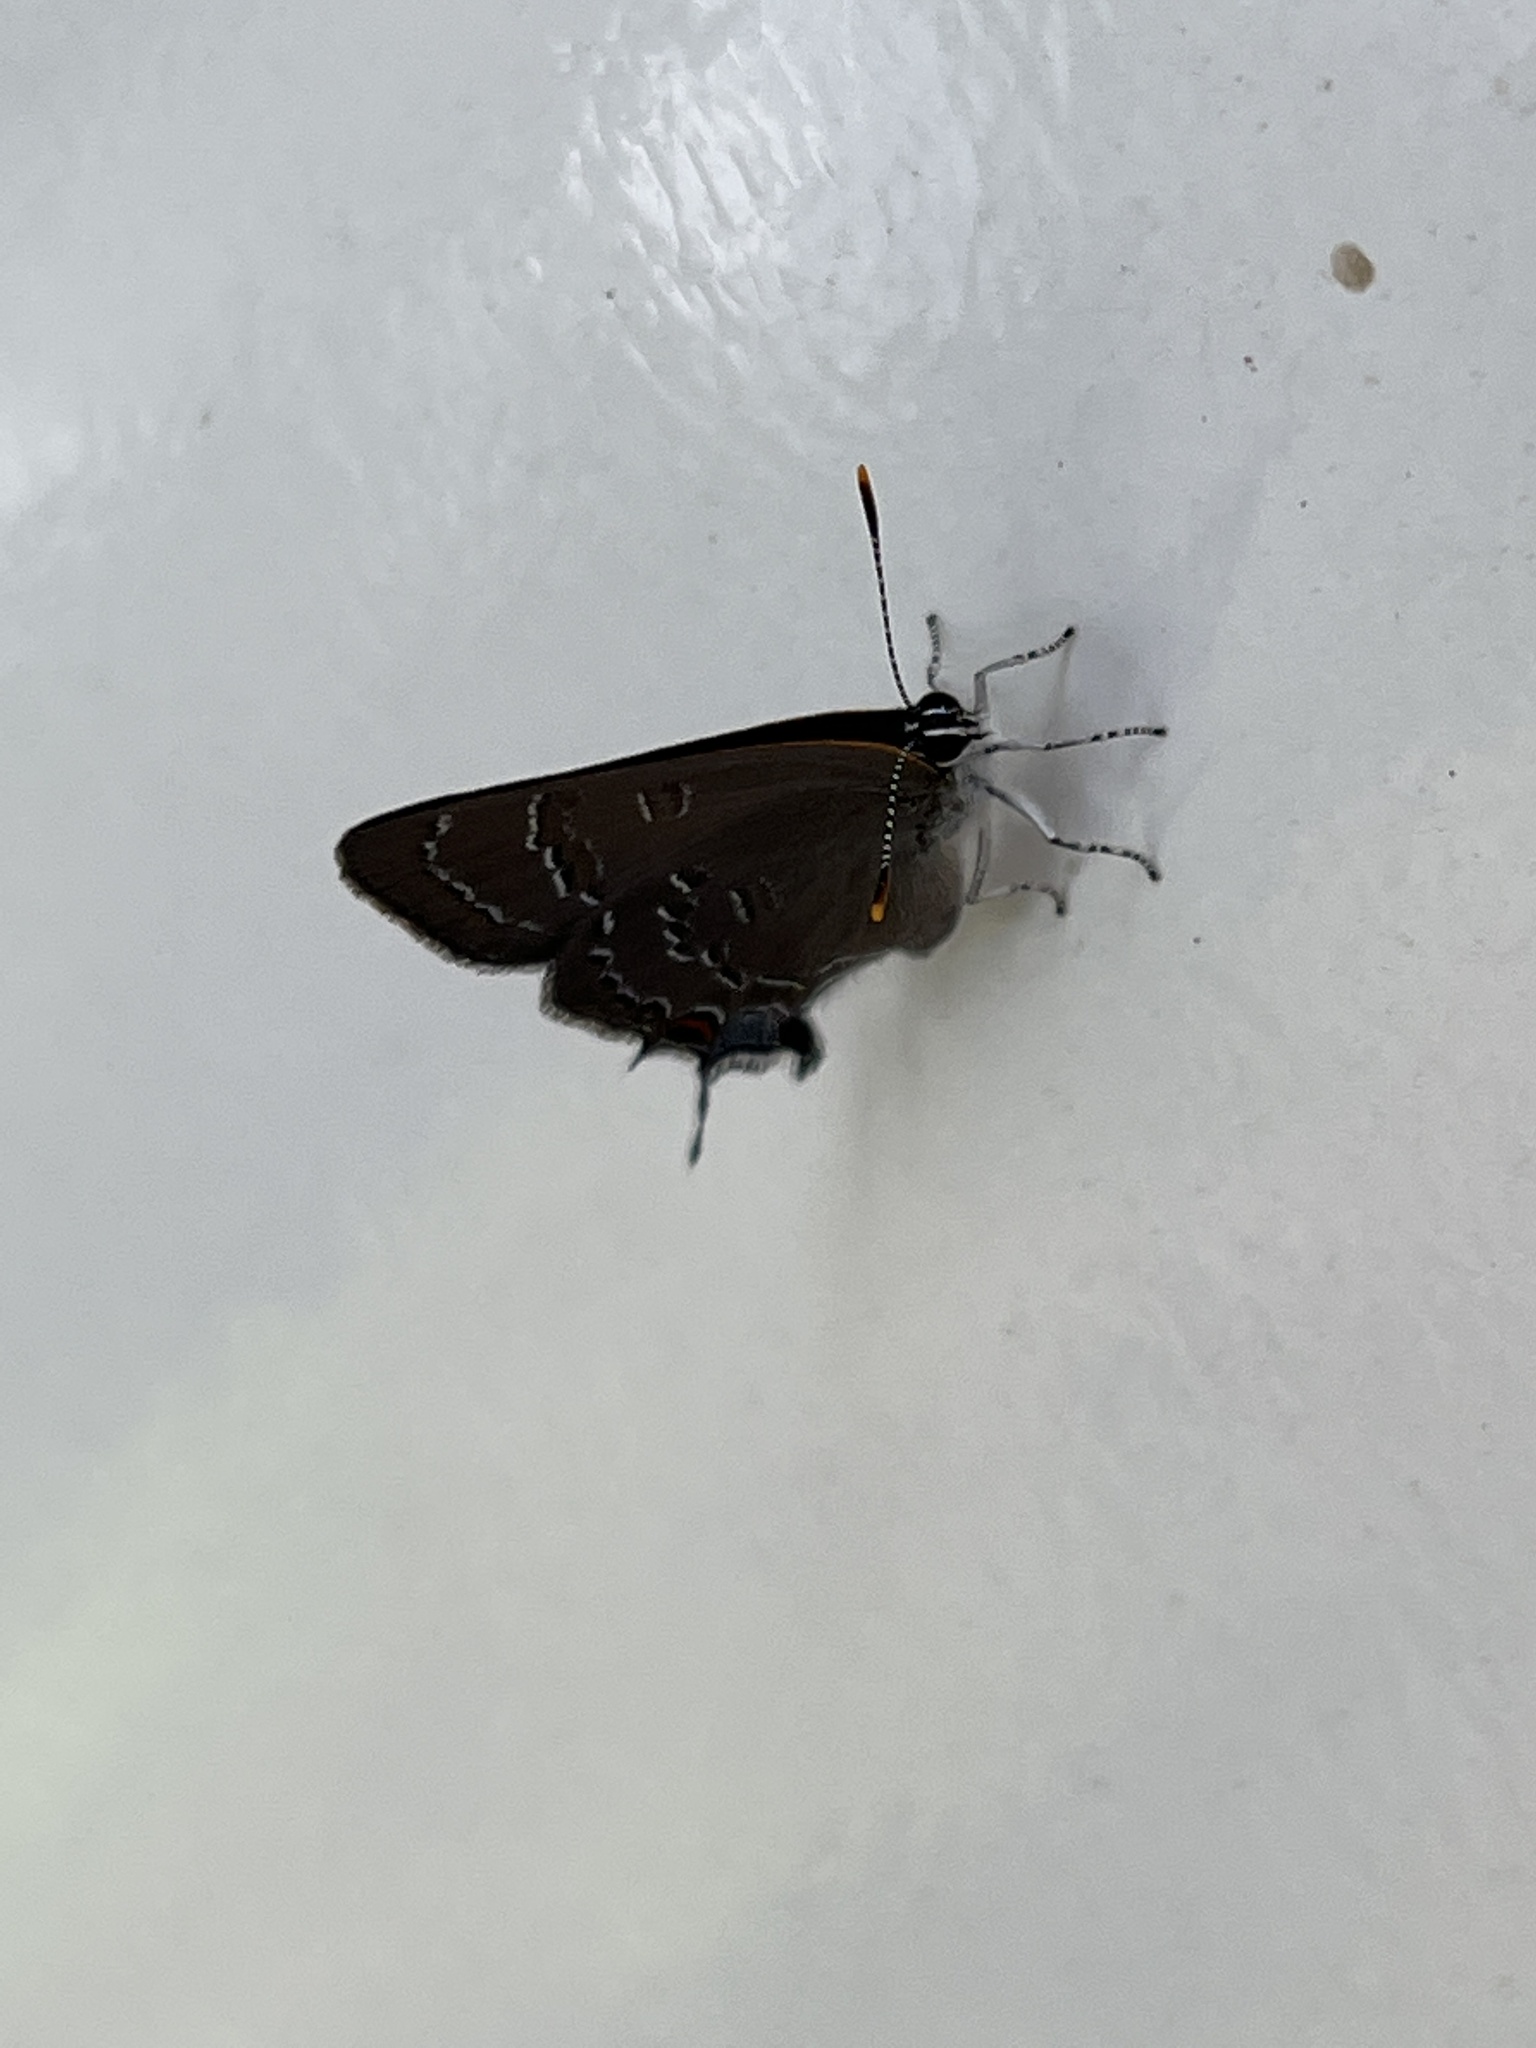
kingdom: Animalia
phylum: Arthropoda
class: Insecta
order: Lepidoptera
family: Lycaenidae
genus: Satyrium
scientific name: Satyrium calanus
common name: Banded hairstreak
